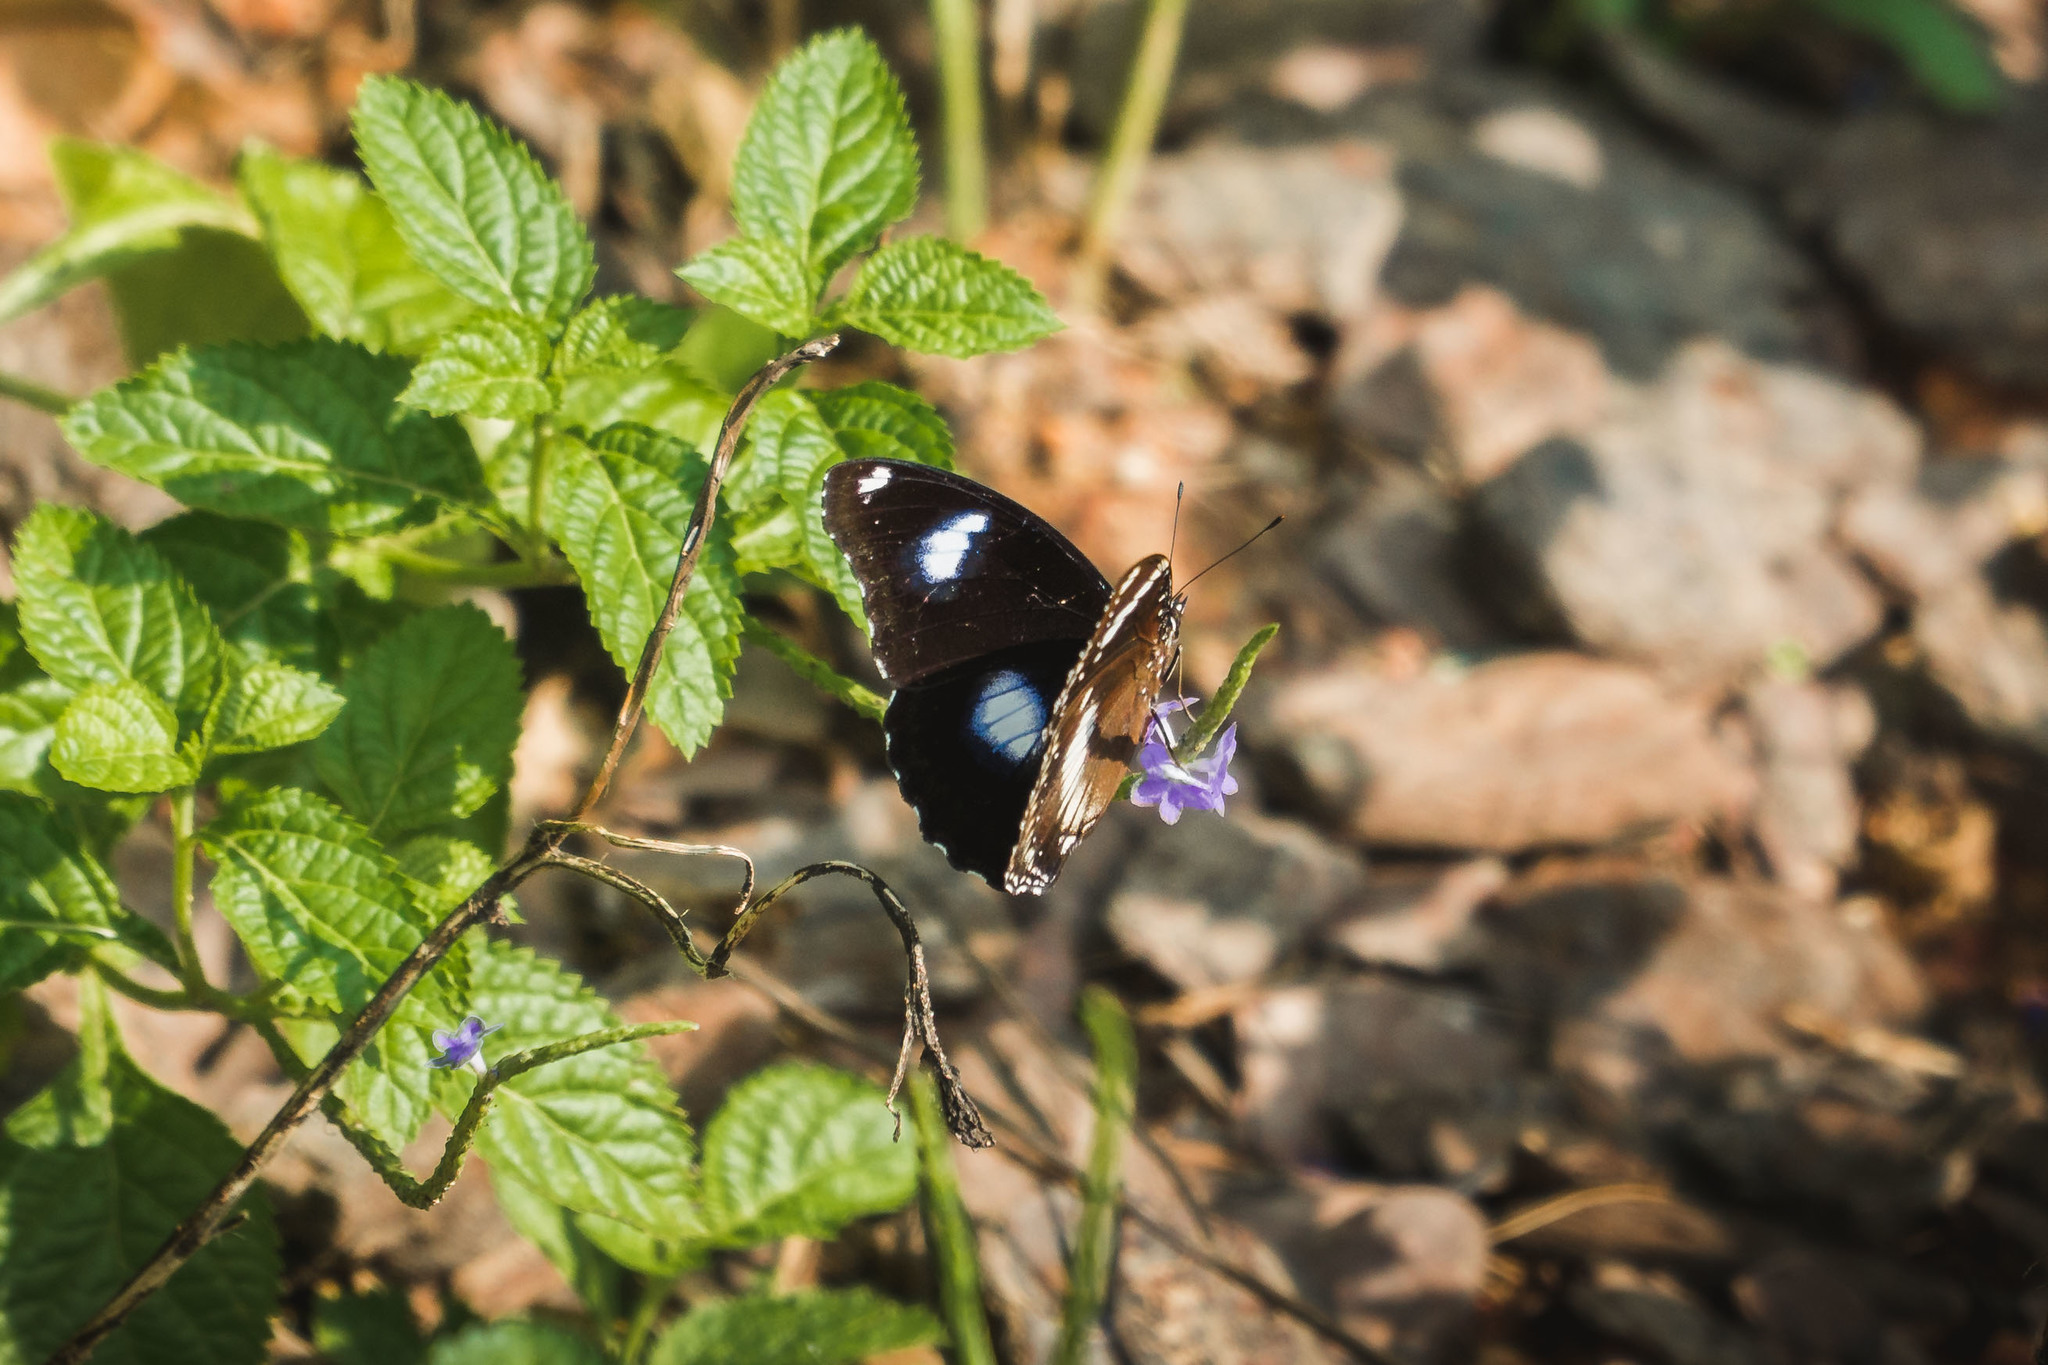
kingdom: Animalia
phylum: Arthropoda
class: Insecta
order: Lepidoptera
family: Nymphalidae
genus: Hypolimnas
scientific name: Hypolimnas bolina
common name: Great eggfly
